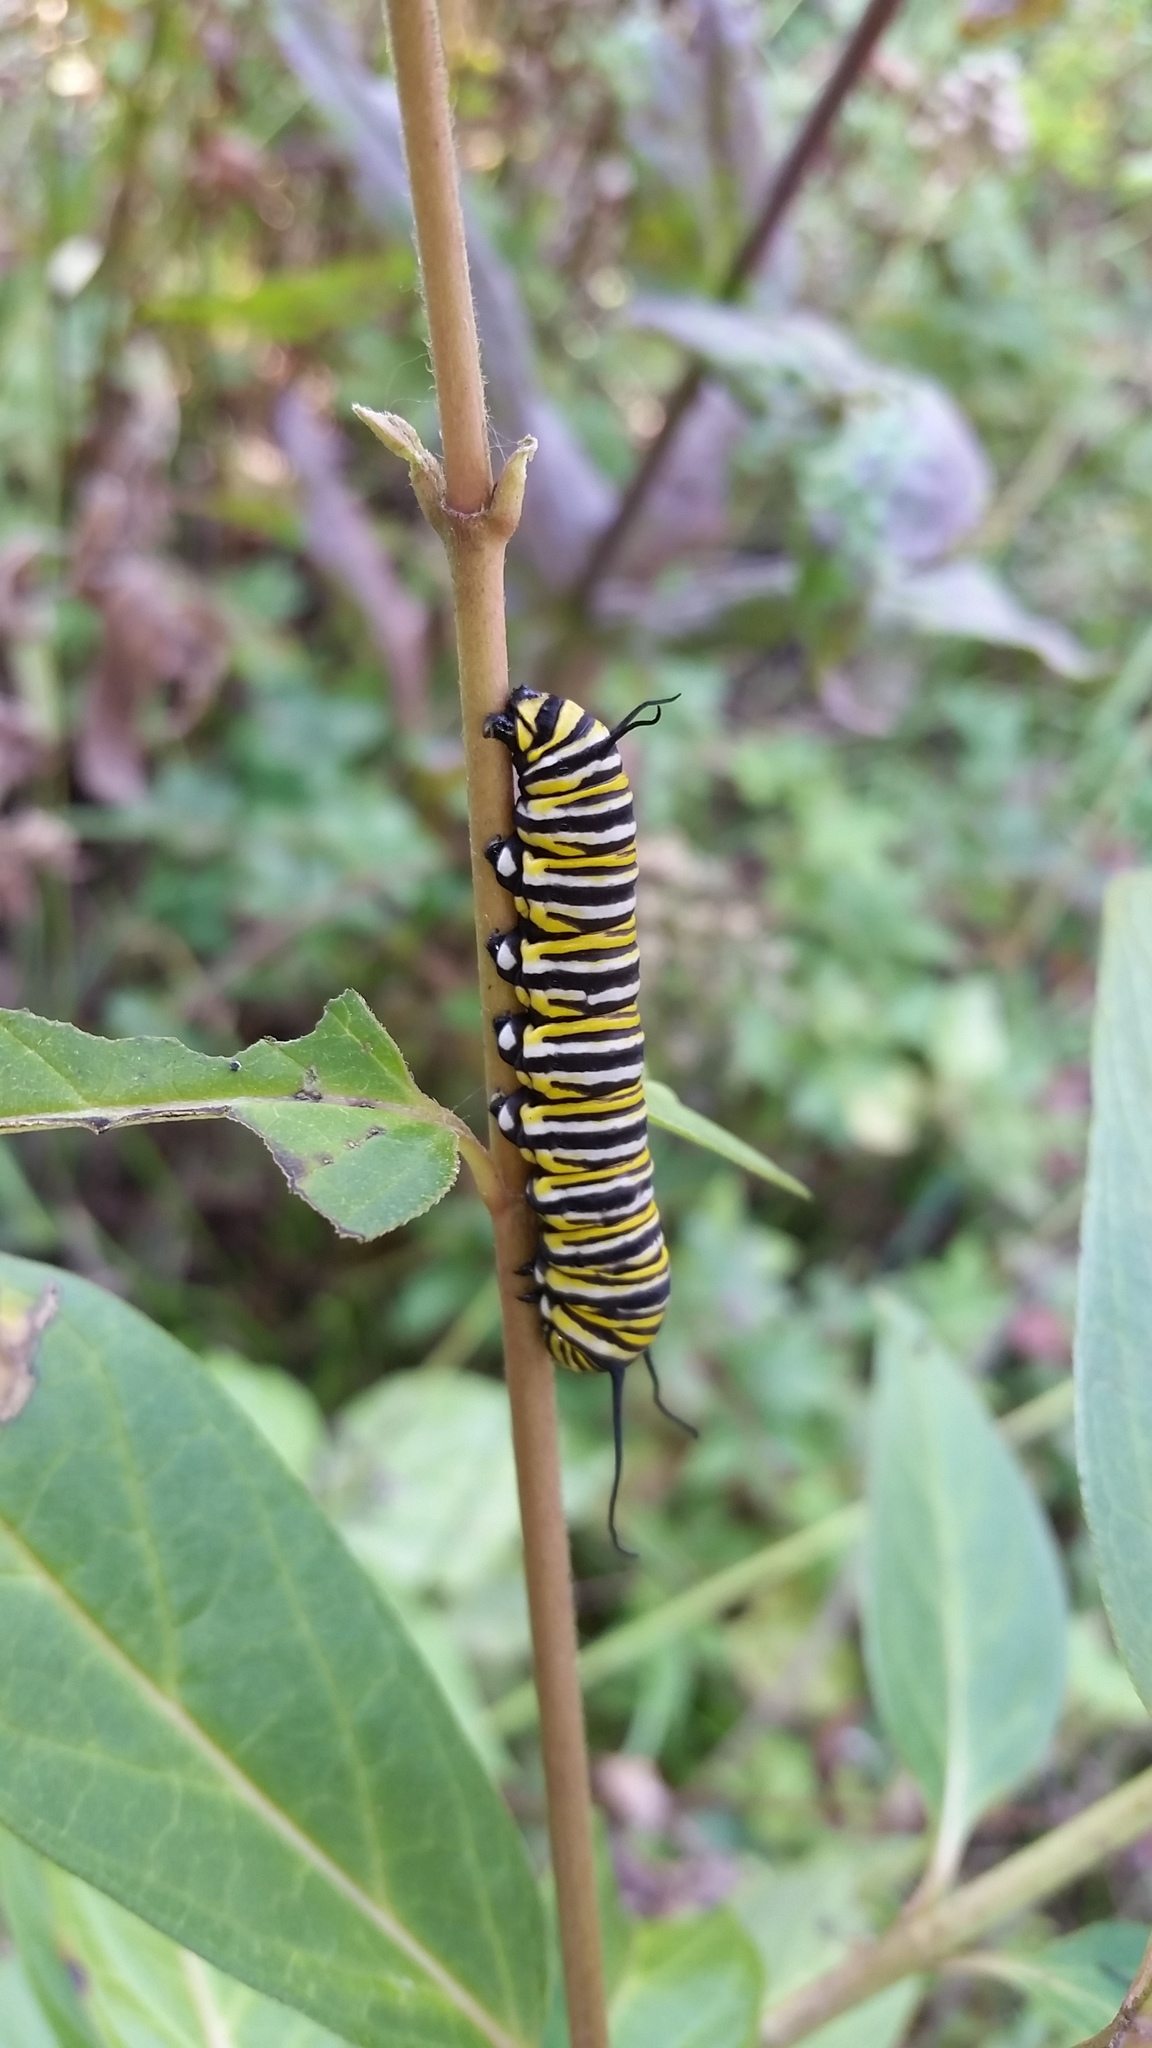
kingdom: Animalia
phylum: Arthropoda
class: Insecta
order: Lepidoptera
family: Nymphalidae
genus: Danaus
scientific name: Danaus plexippus
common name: Monarch
